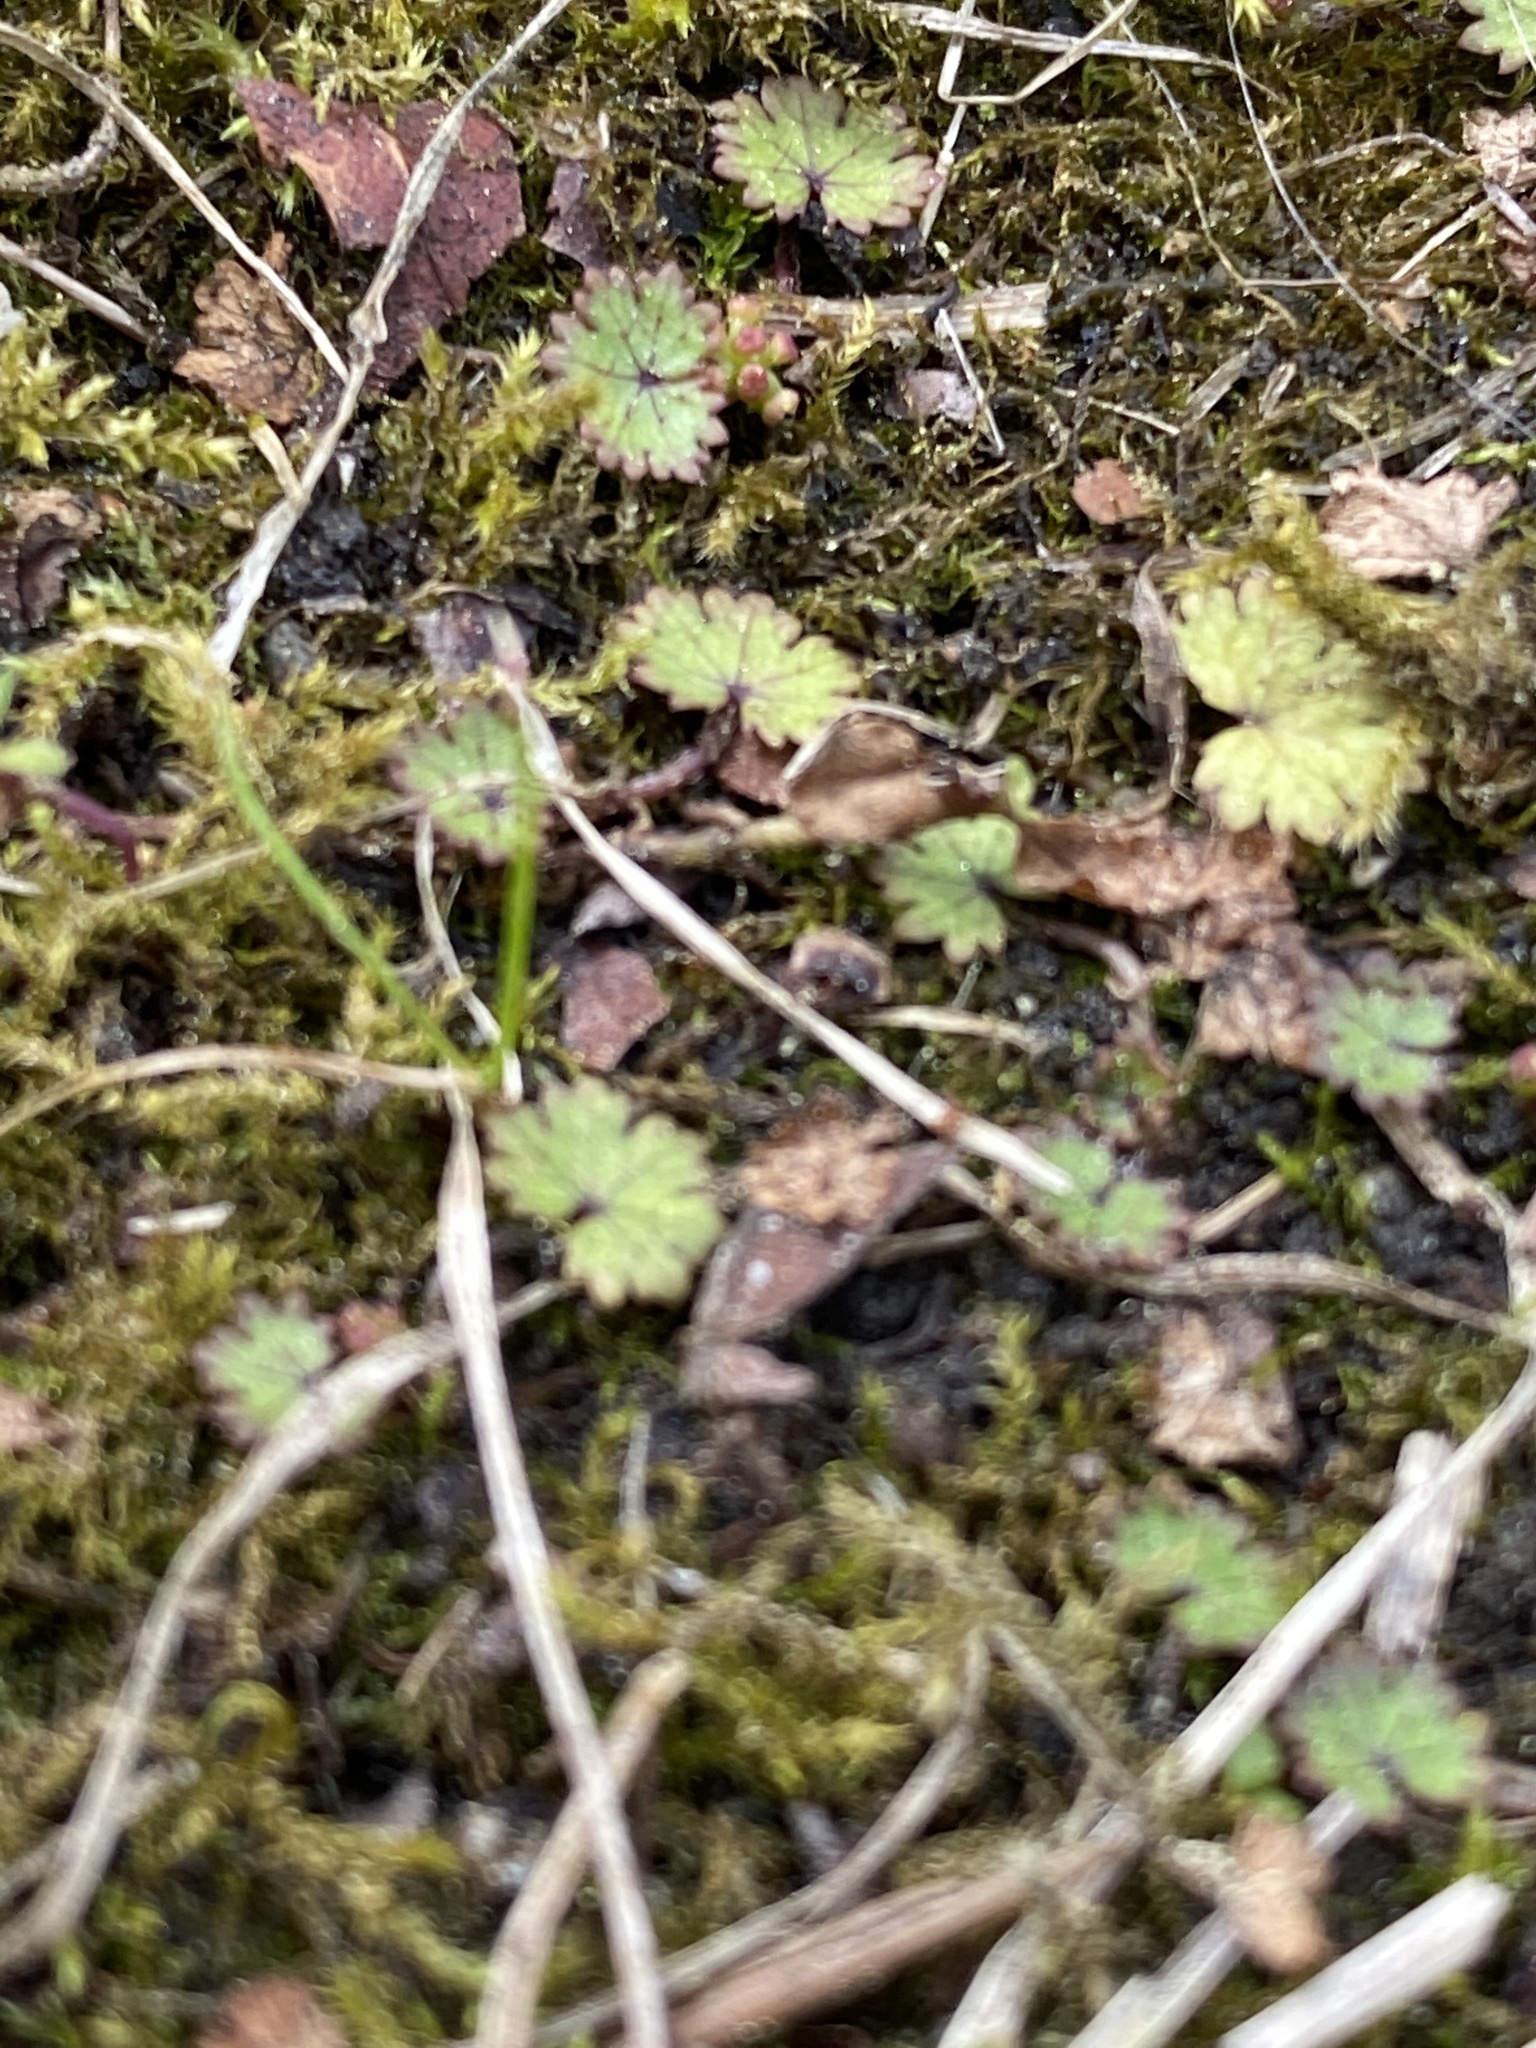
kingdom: Plantae
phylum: Tracheophyta
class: Magnoliopsida
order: Apiales
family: Araliaceae
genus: Hydrocotyle
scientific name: Hydrocotyle moschata
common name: Hairy pennywort
